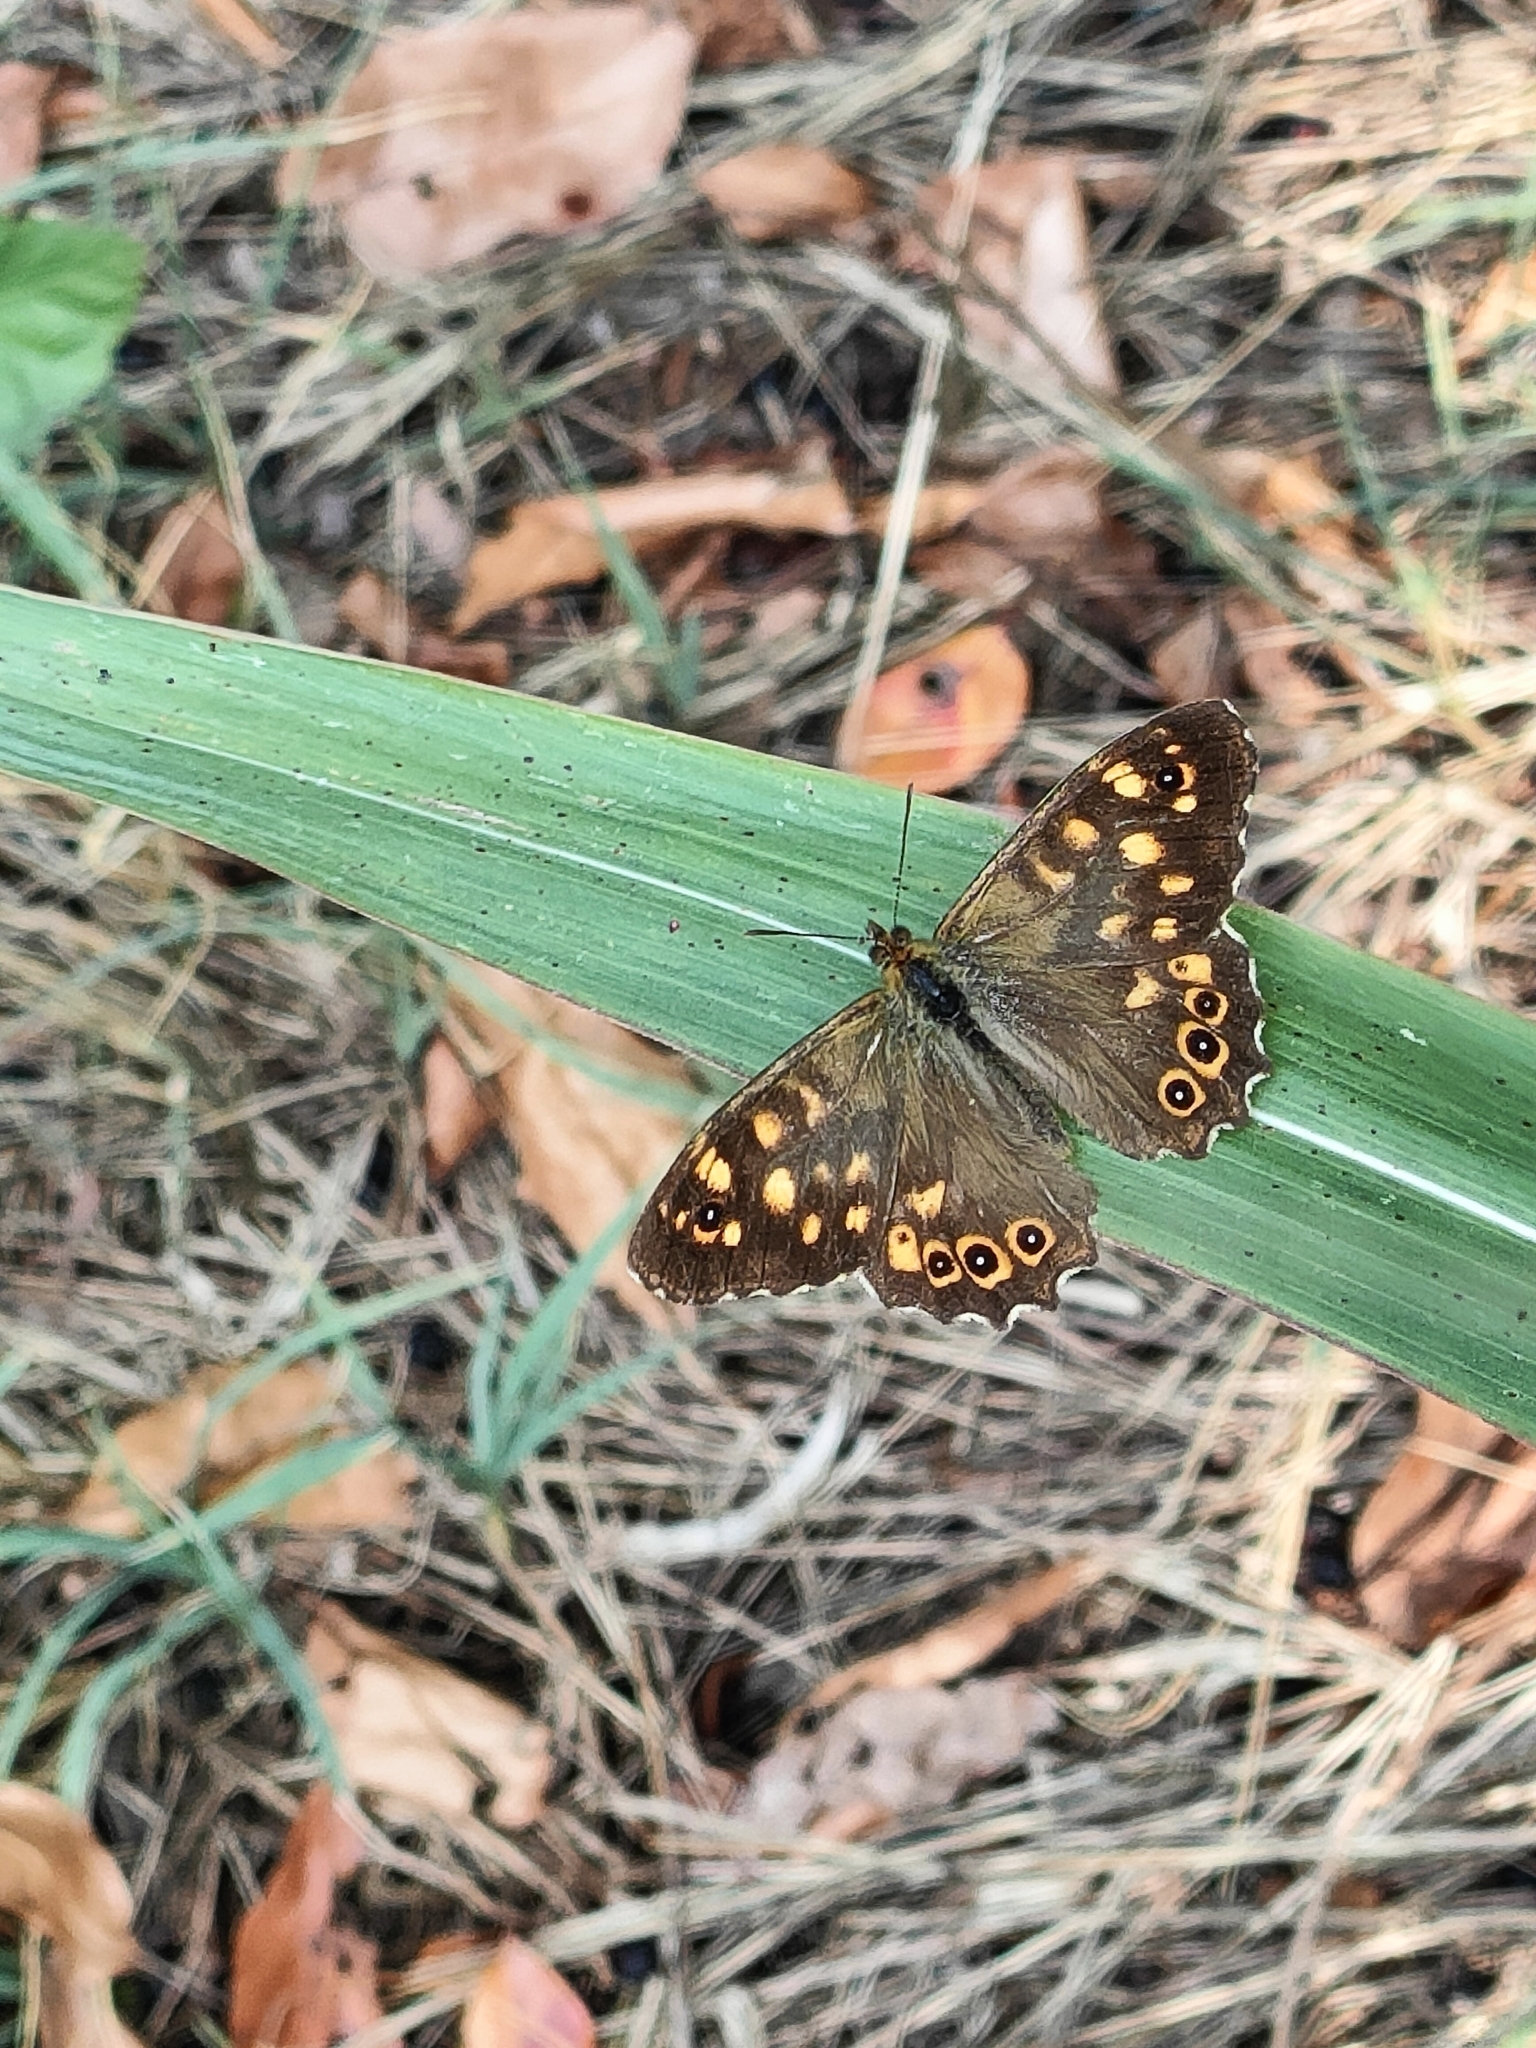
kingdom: Animalia
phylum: Arthropoda
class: Insecta
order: Lepidoptera
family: Nymphalidae
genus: Pararge
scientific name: Pararge aegeria
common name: Speckled wood
